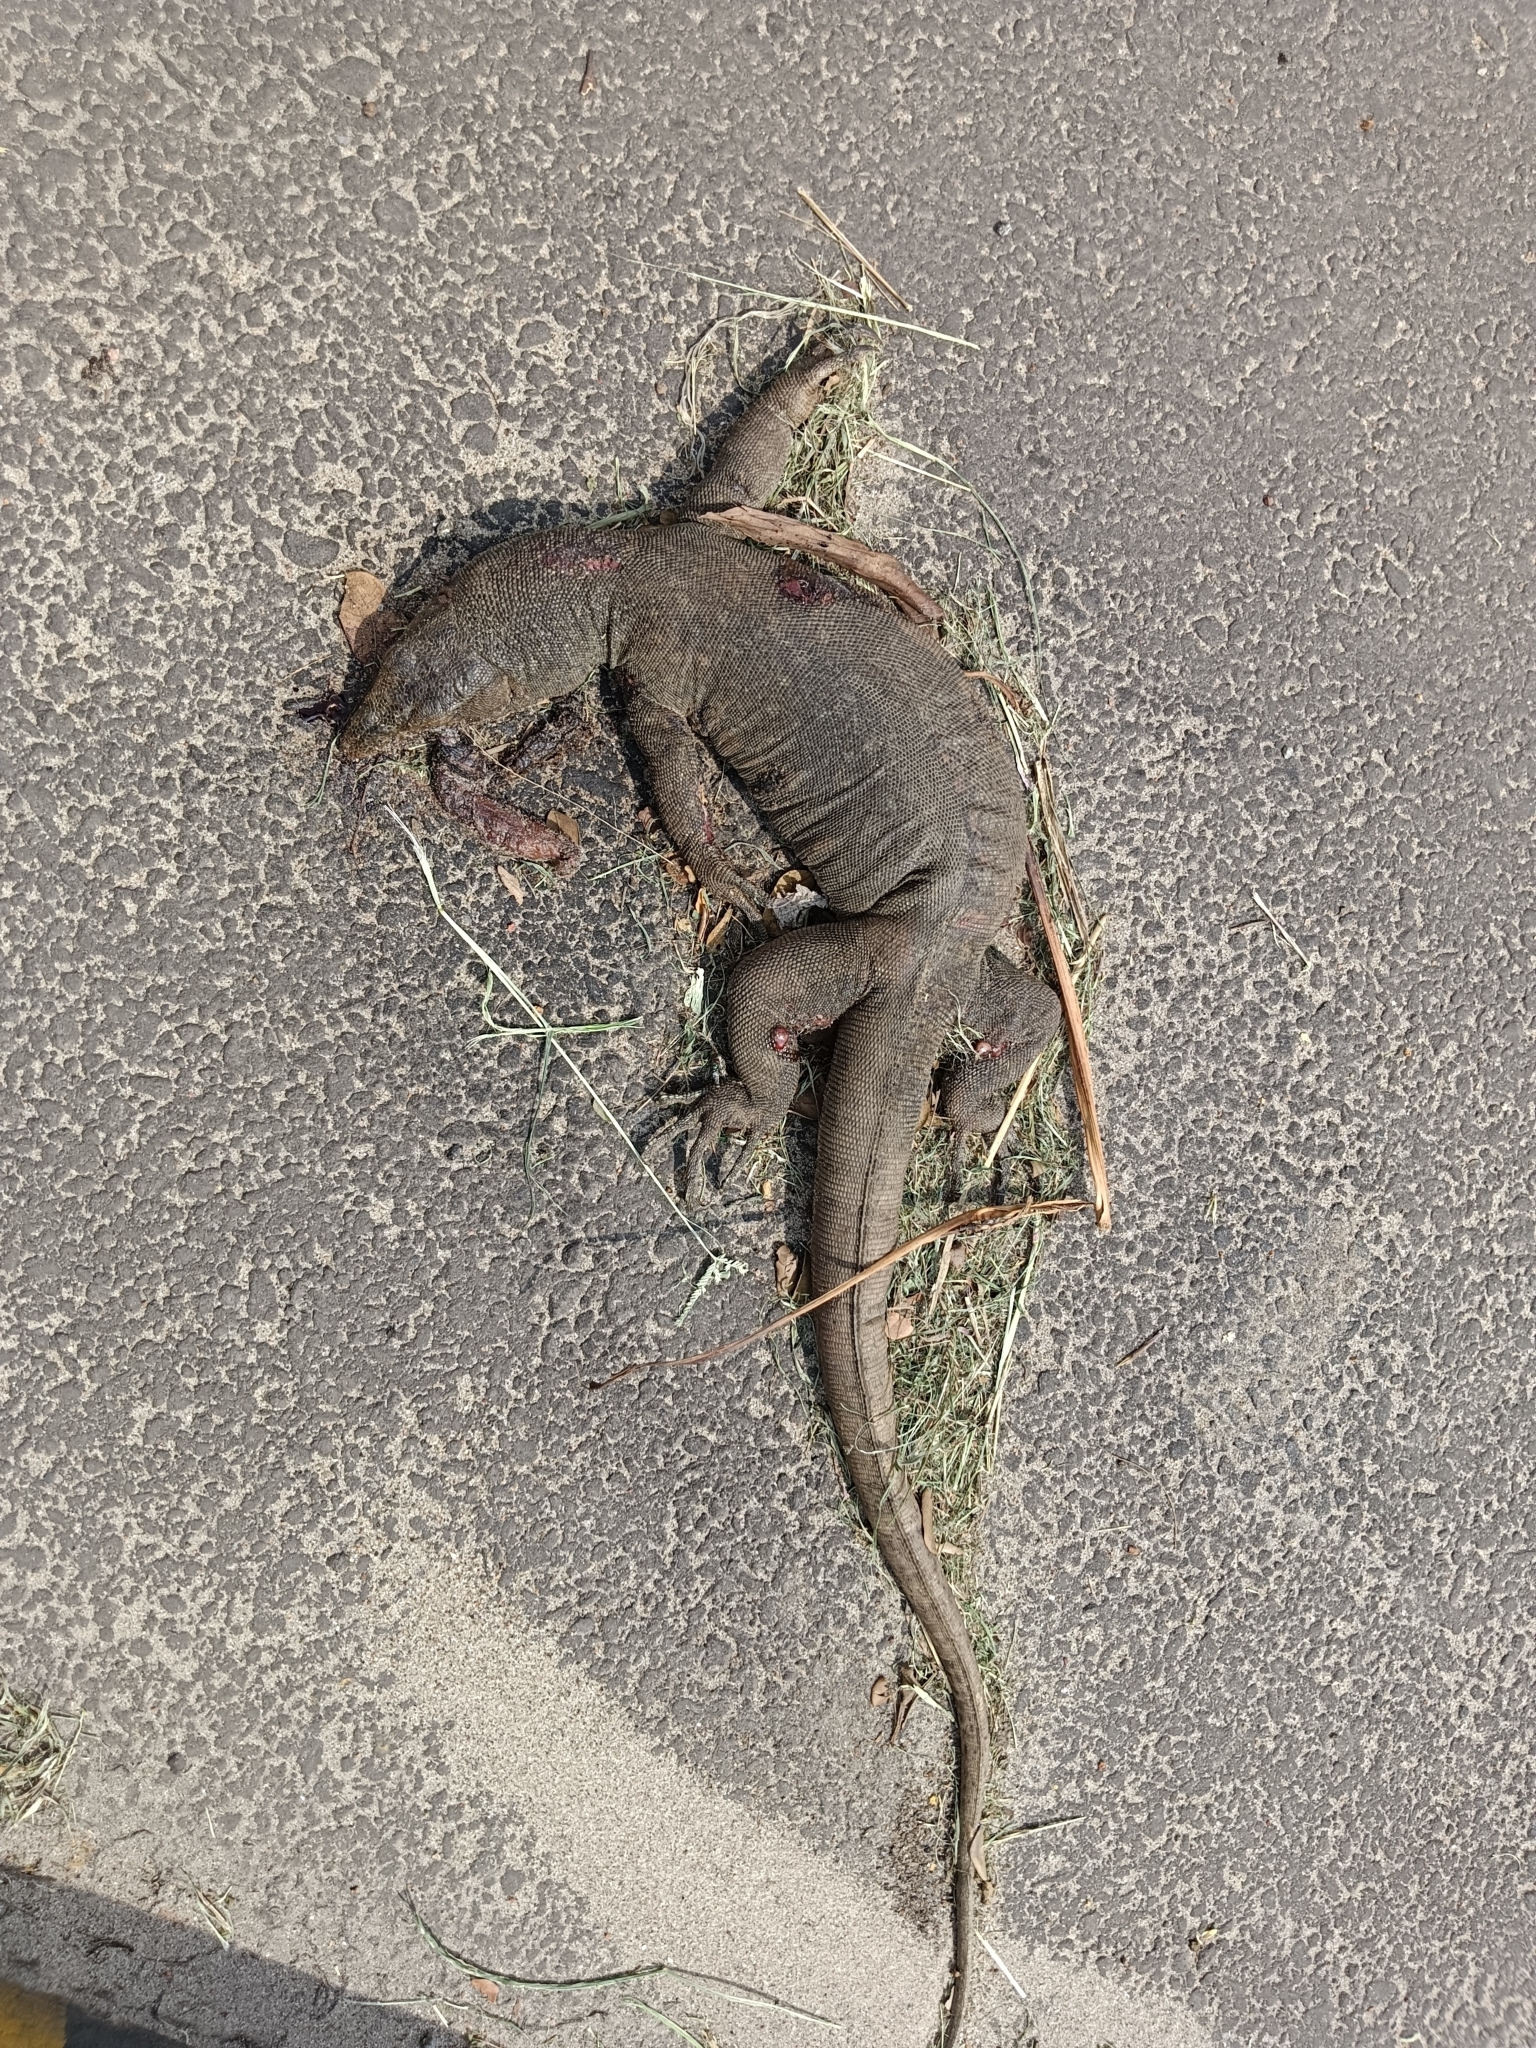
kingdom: Animalia
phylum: Chordata
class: Squamata
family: Varanidae
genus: Varanus
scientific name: Varanus bengalensis
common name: Bengal monitor
